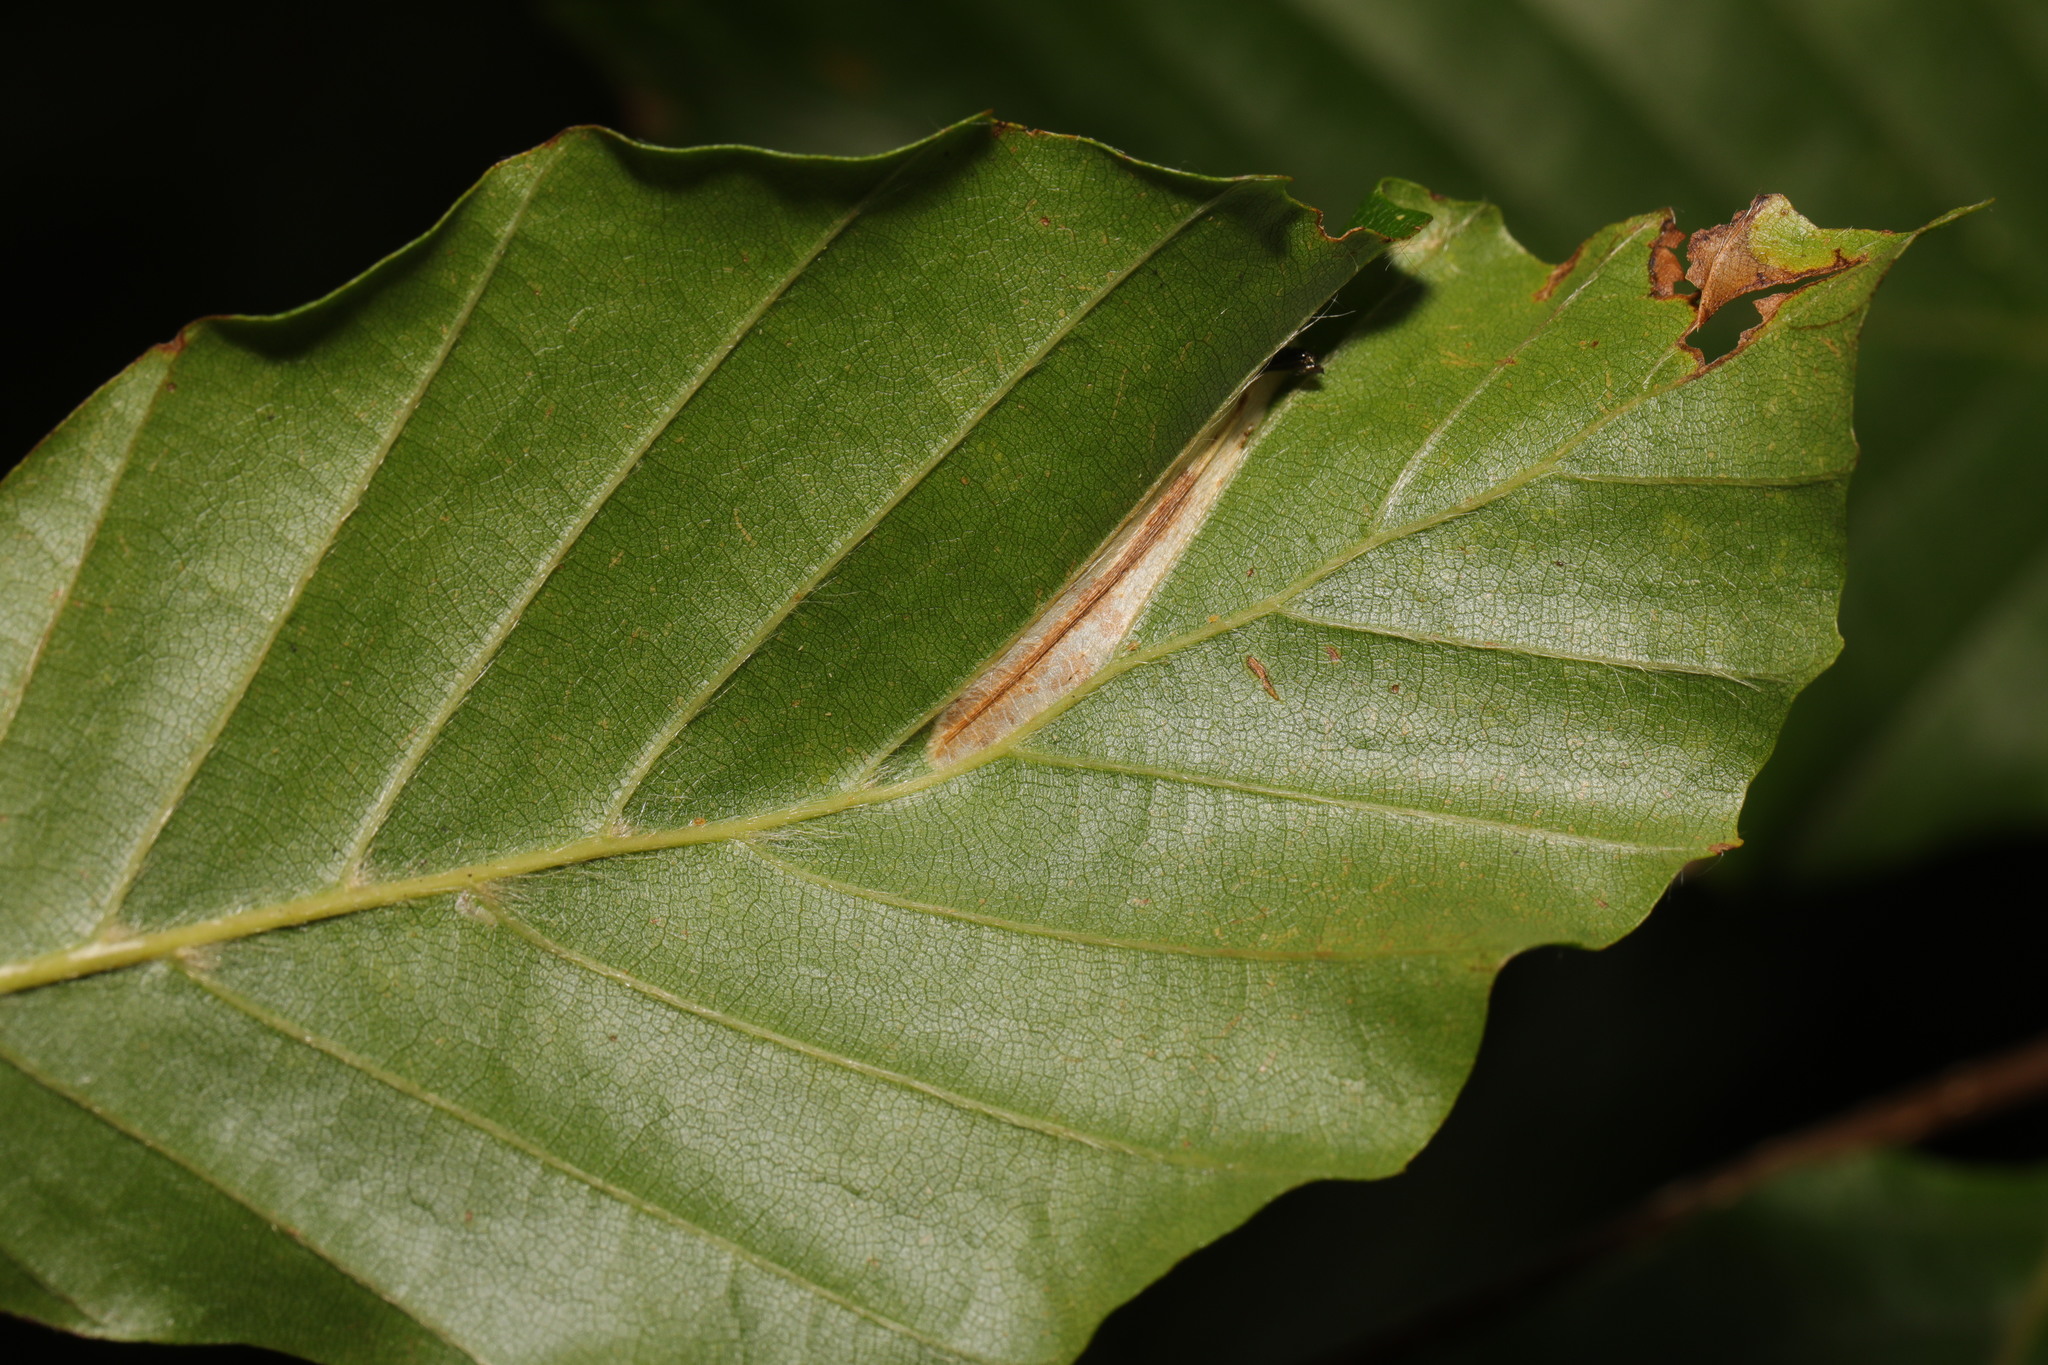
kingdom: Animalia
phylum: Arthropoda
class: Insecta
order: Lepidoptera
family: Gracillariidae
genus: Phyllonorycter
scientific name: Phyllonorycter maestingella
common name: Beech midget
